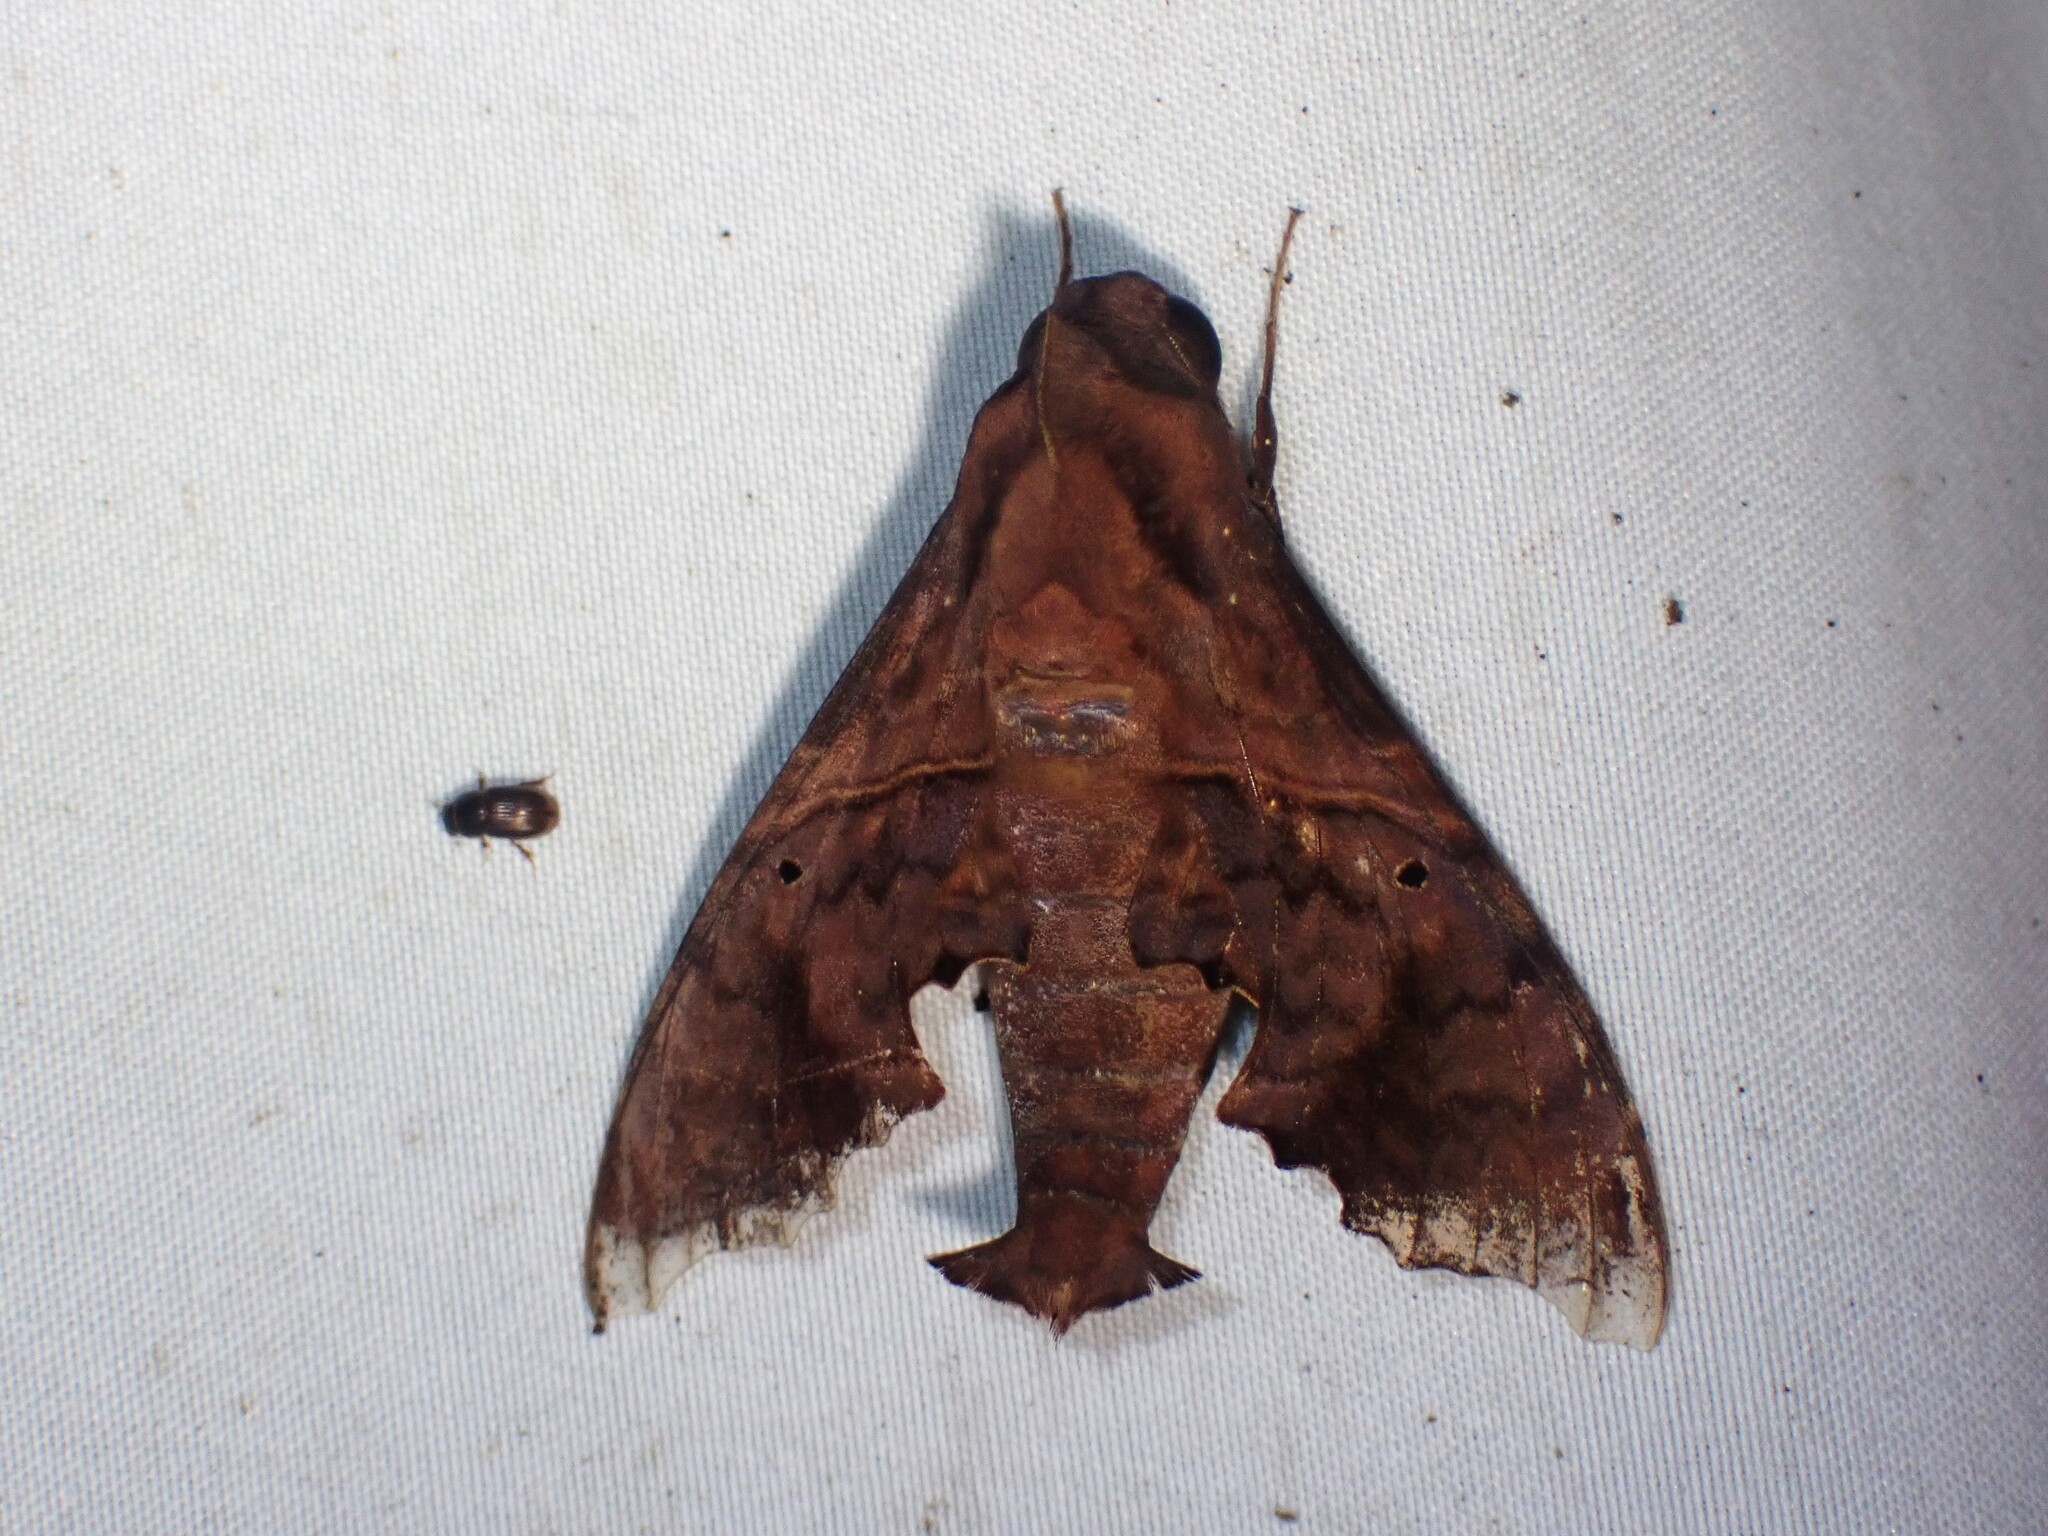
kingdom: Animalia
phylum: Arthropoda
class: Insecta
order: Lepidoptera
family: Sphingidae
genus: Enyo
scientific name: Enyo lugubris
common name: Mournful sphinx
